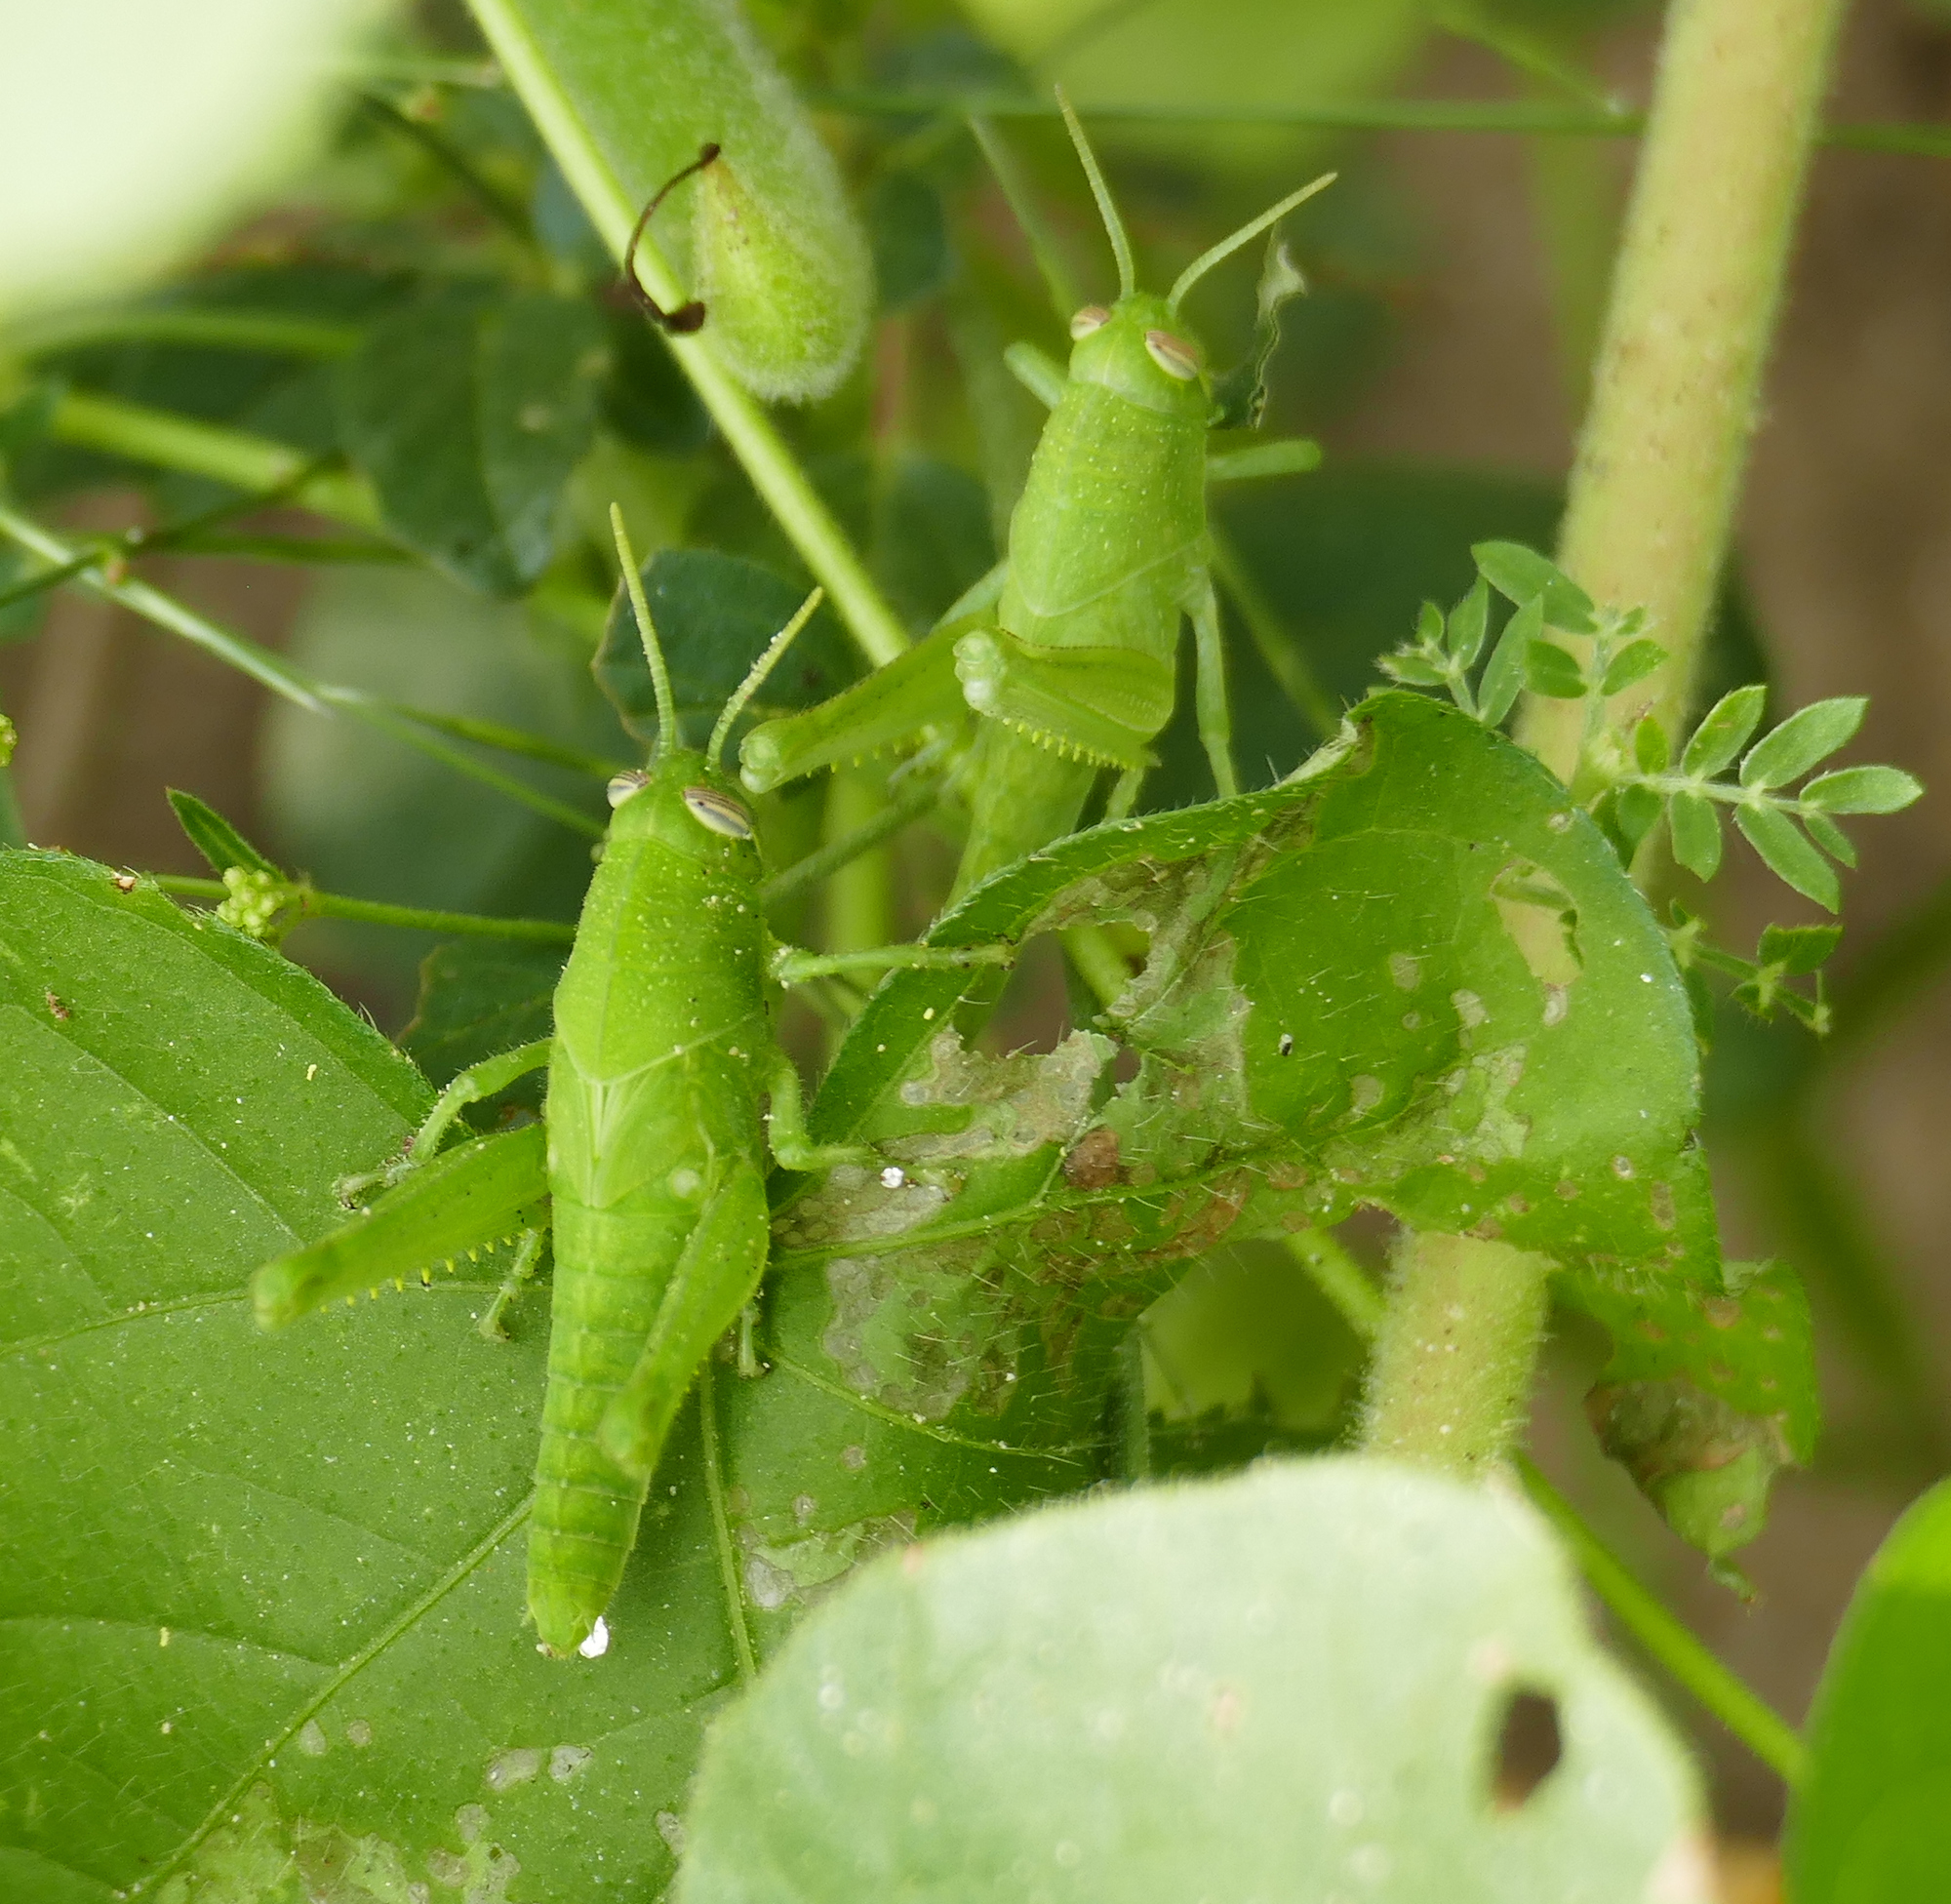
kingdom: Animalia
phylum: Arthropoda
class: Insecta
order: Orthoptera
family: Acrididae
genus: Schistocerca
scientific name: Schistocerca nitens
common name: Vagrant grasshopper
